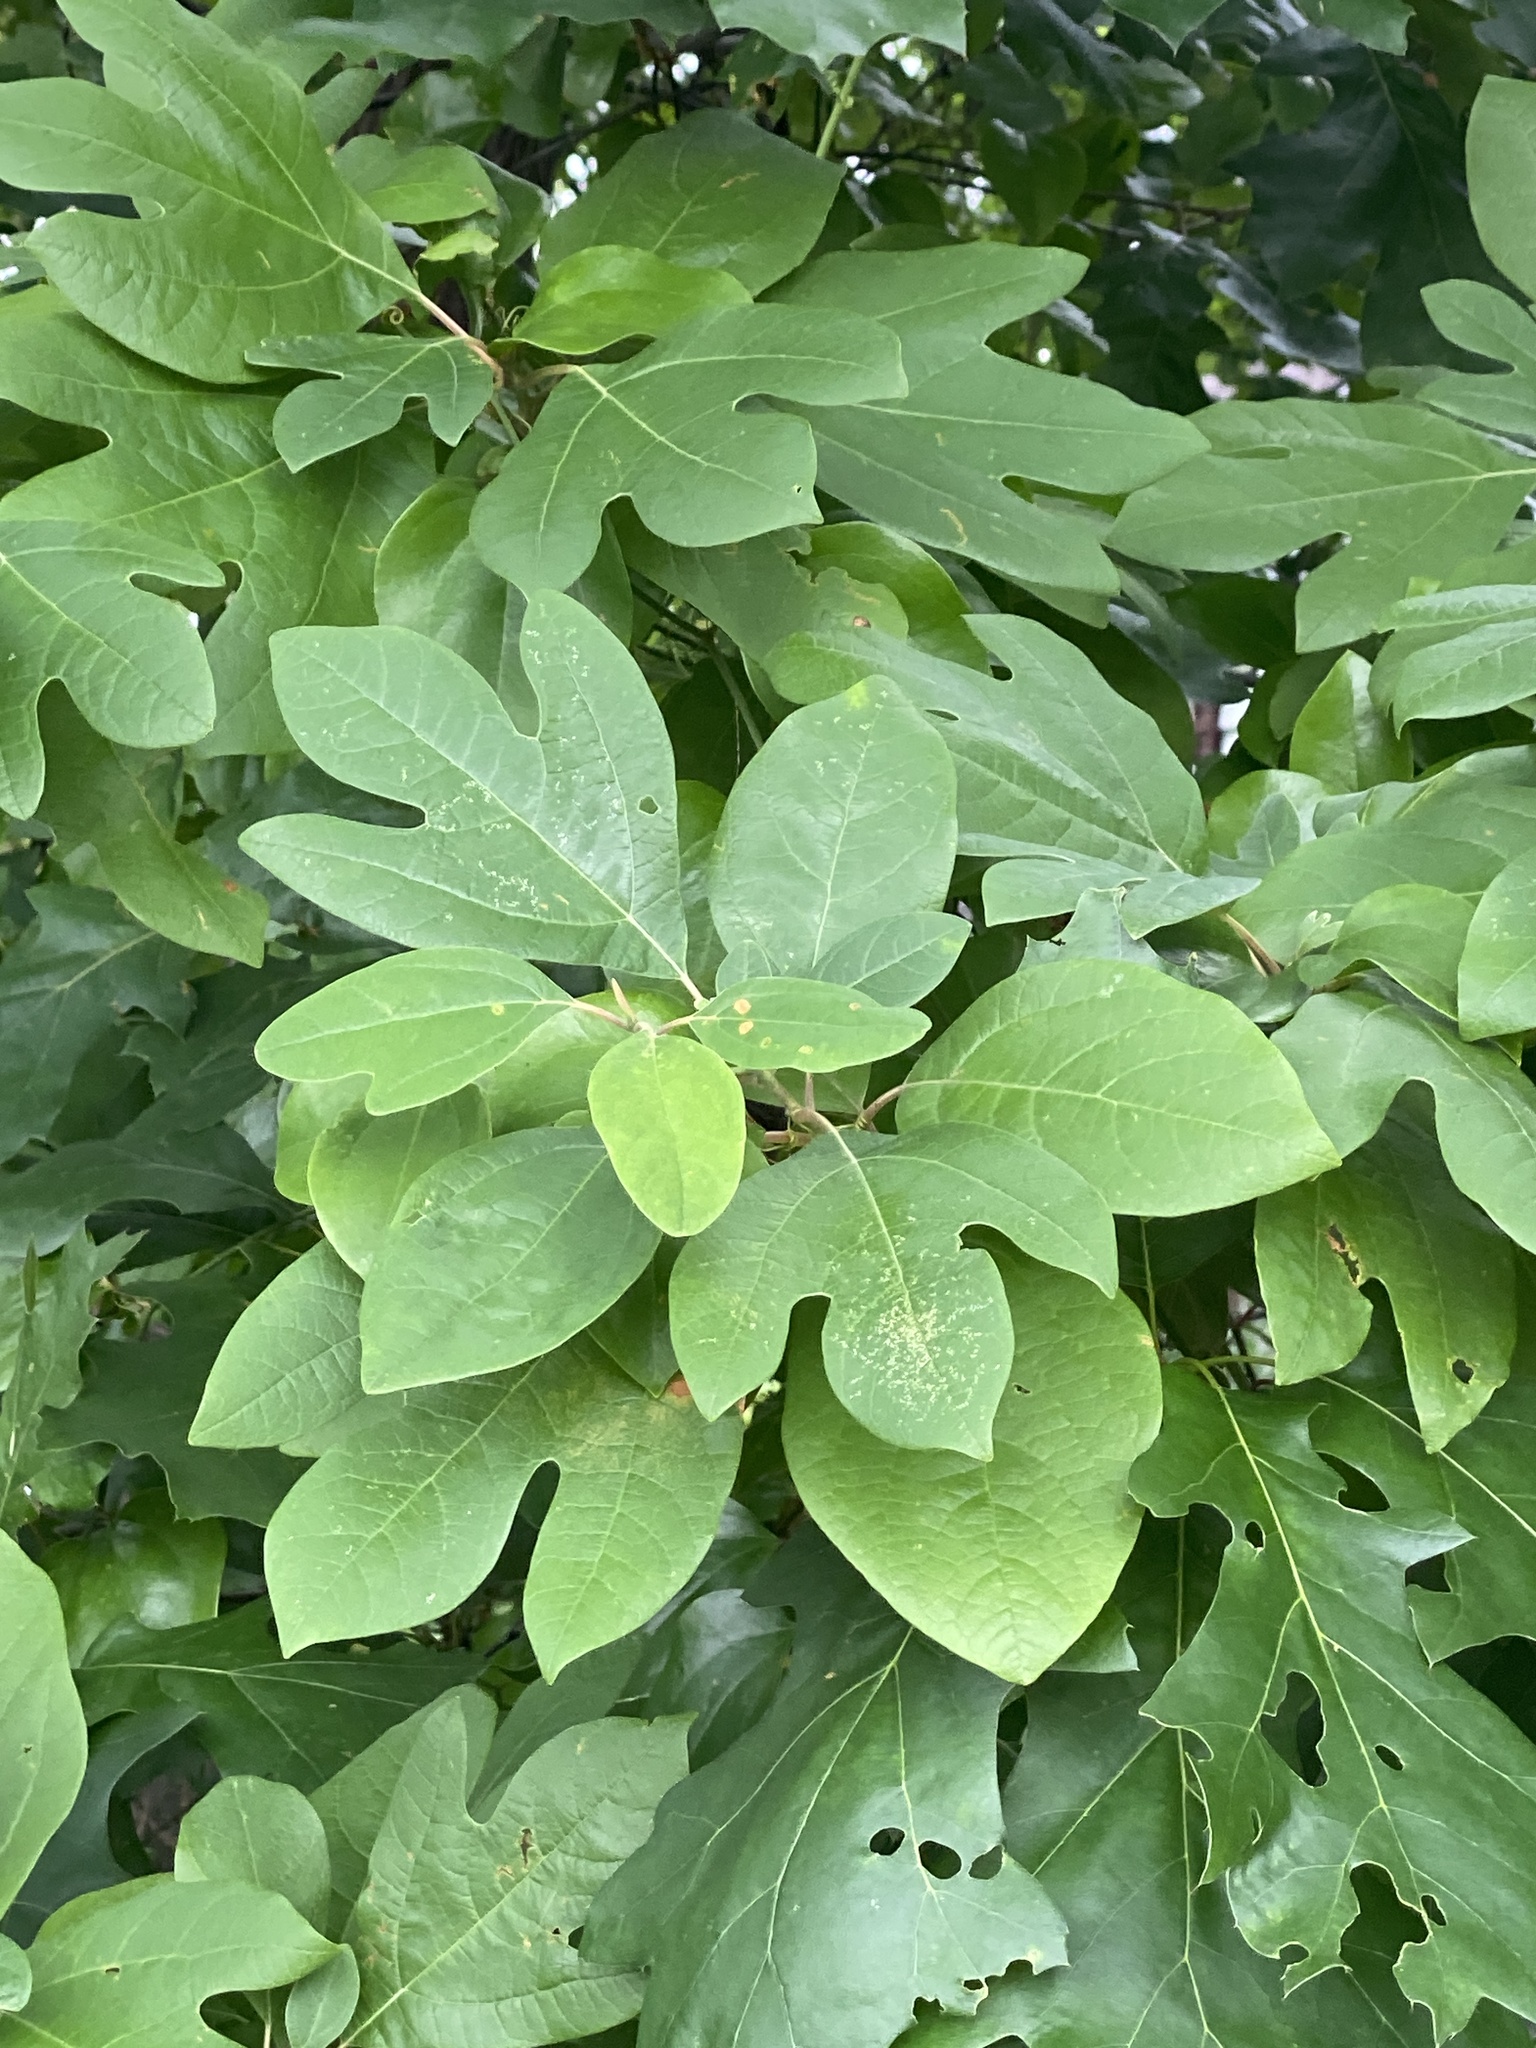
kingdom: Plantae
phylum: Tracheophyta
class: Magnoliopsida
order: Laurales
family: Lauraceae
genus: Sassafras
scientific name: Sassafras albidum
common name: Sassafras
